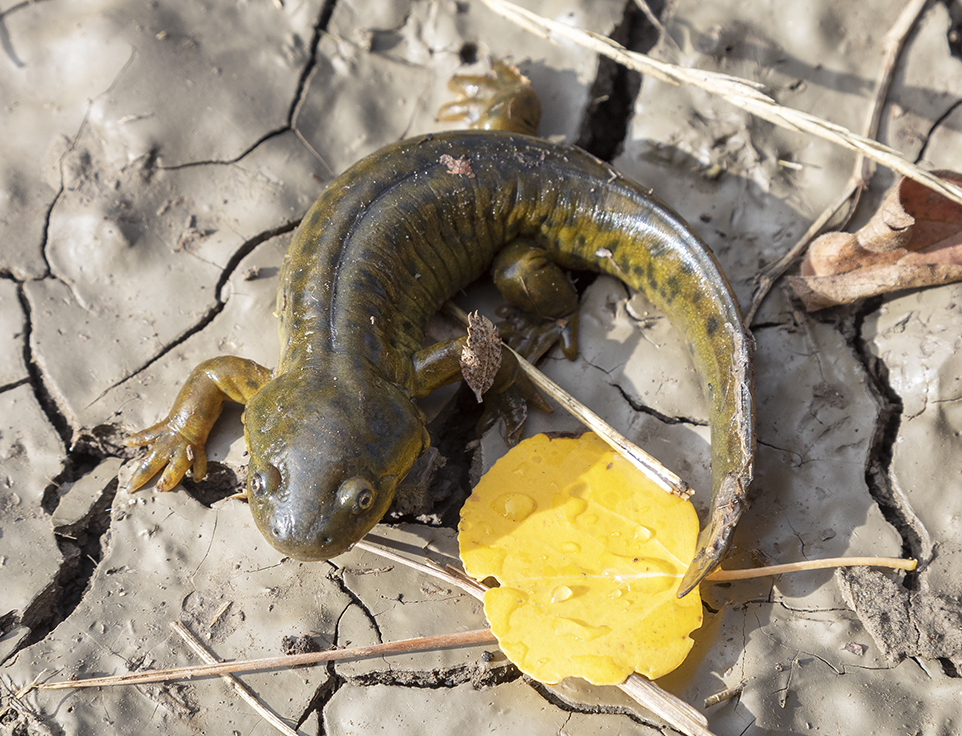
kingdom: Animalia
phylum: Chordata
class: Amphibia
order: Caudata
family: Ambystomatidae
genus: Ambystoma
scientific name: Ambystoma mavortium
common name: Western tiger salamander
